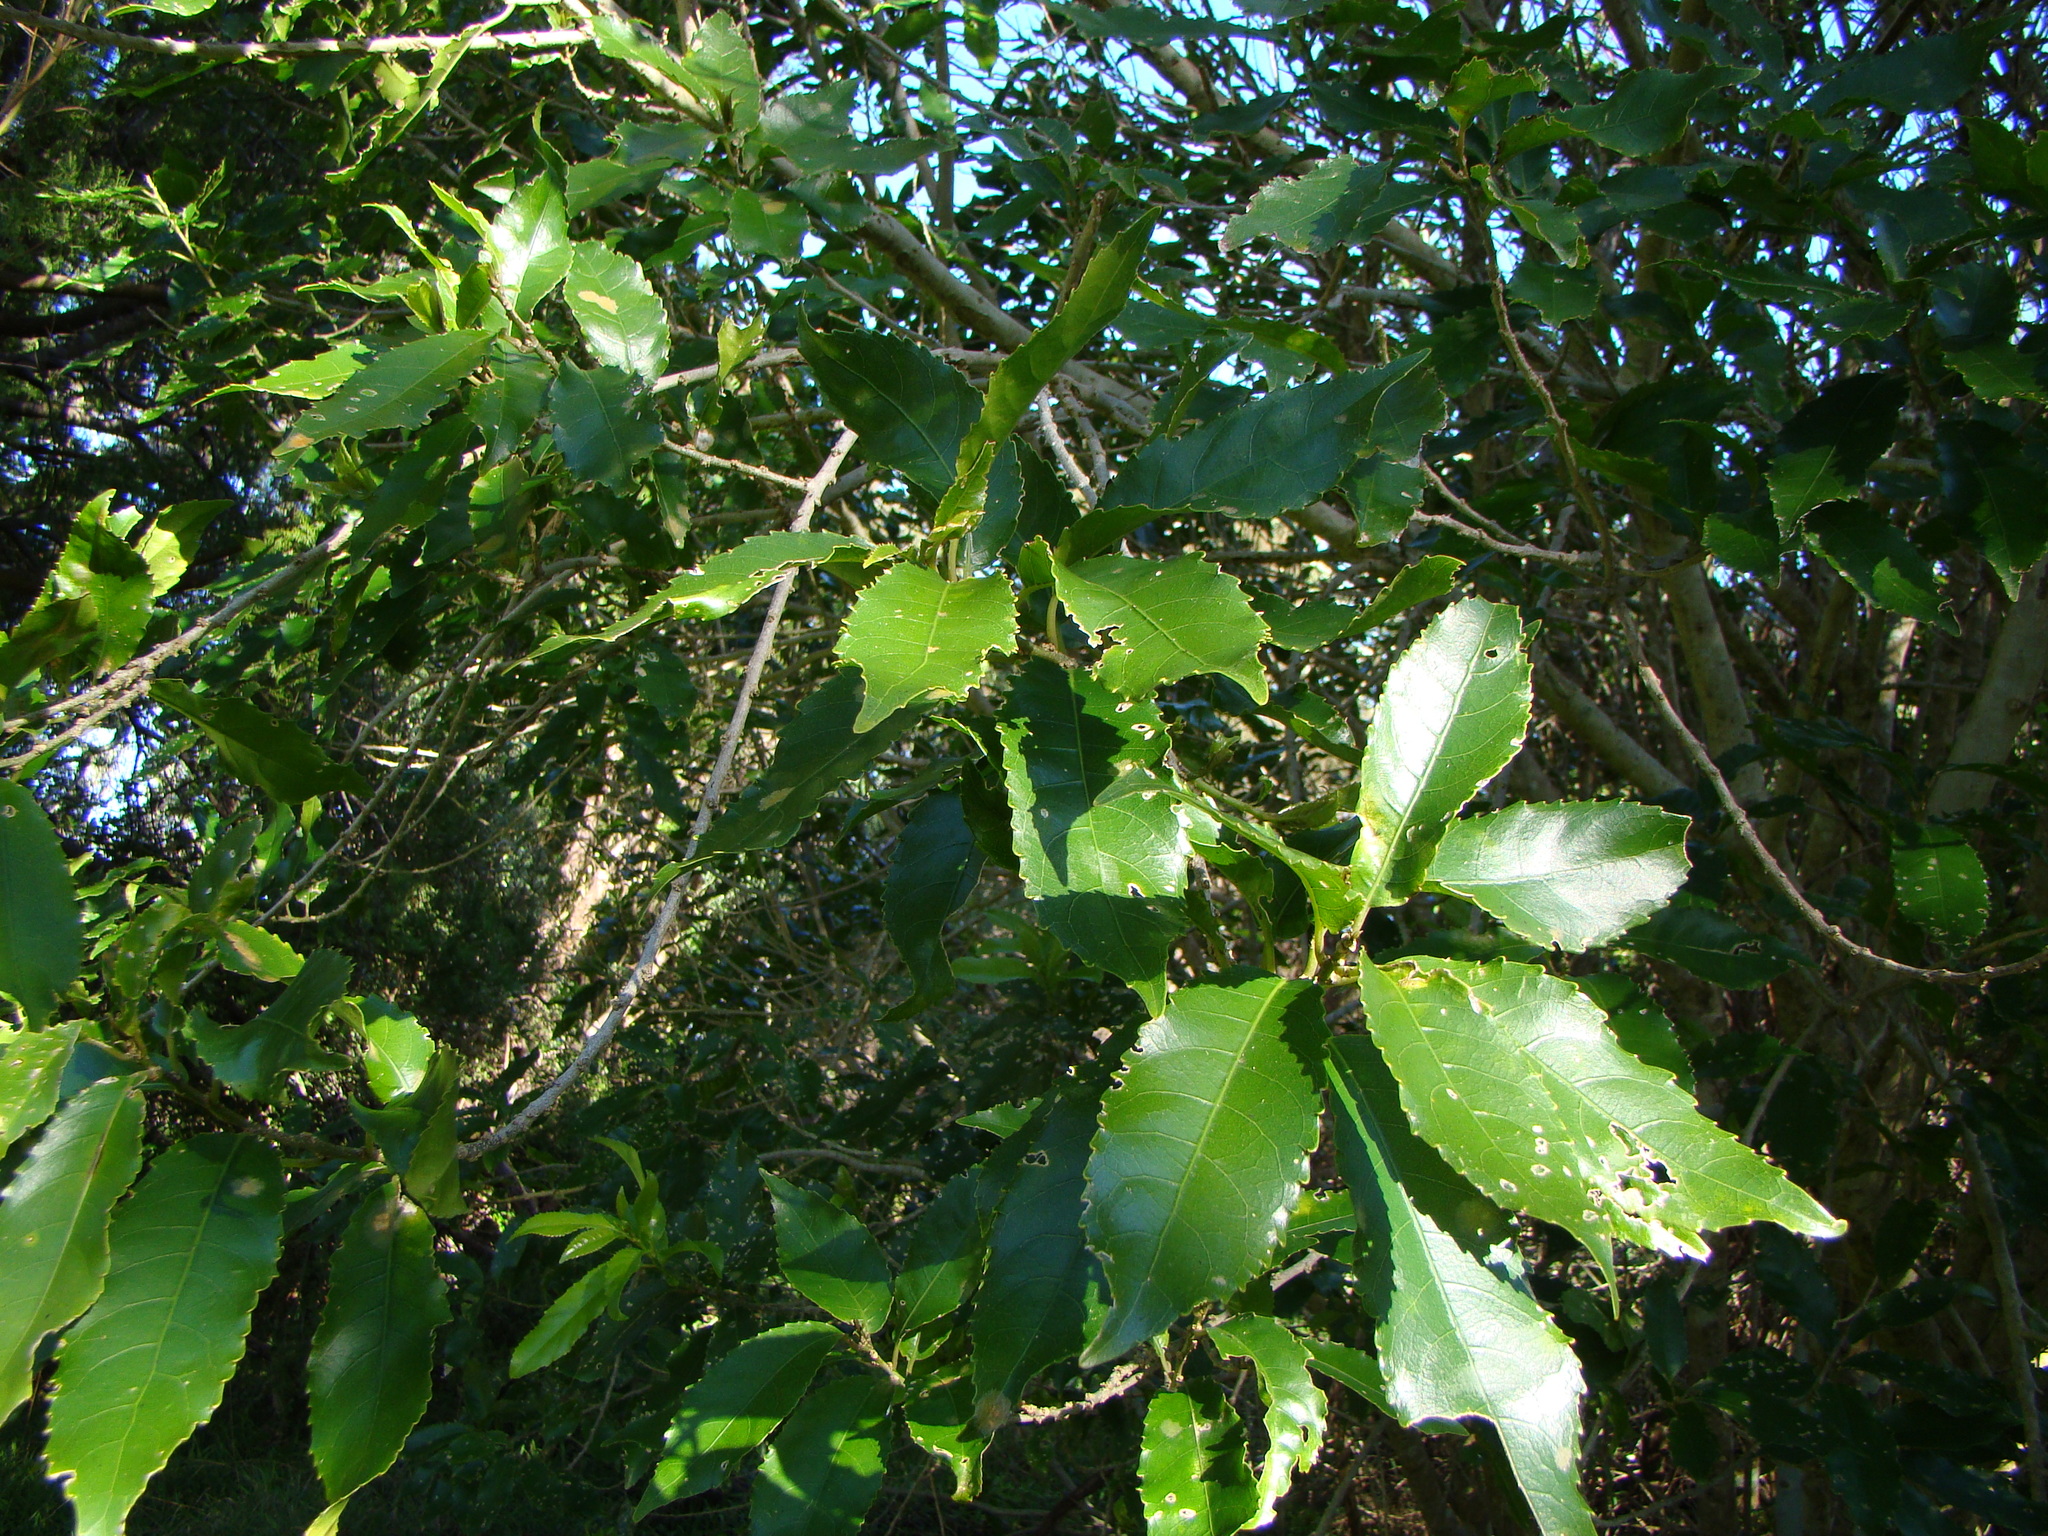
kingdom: Plantae
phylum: Tracheophyta
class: Magnoliopsida
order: Malpighiales
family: Violaceae
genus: Melicytus
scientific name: Melicytus ramiflorus
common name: Mahoe
